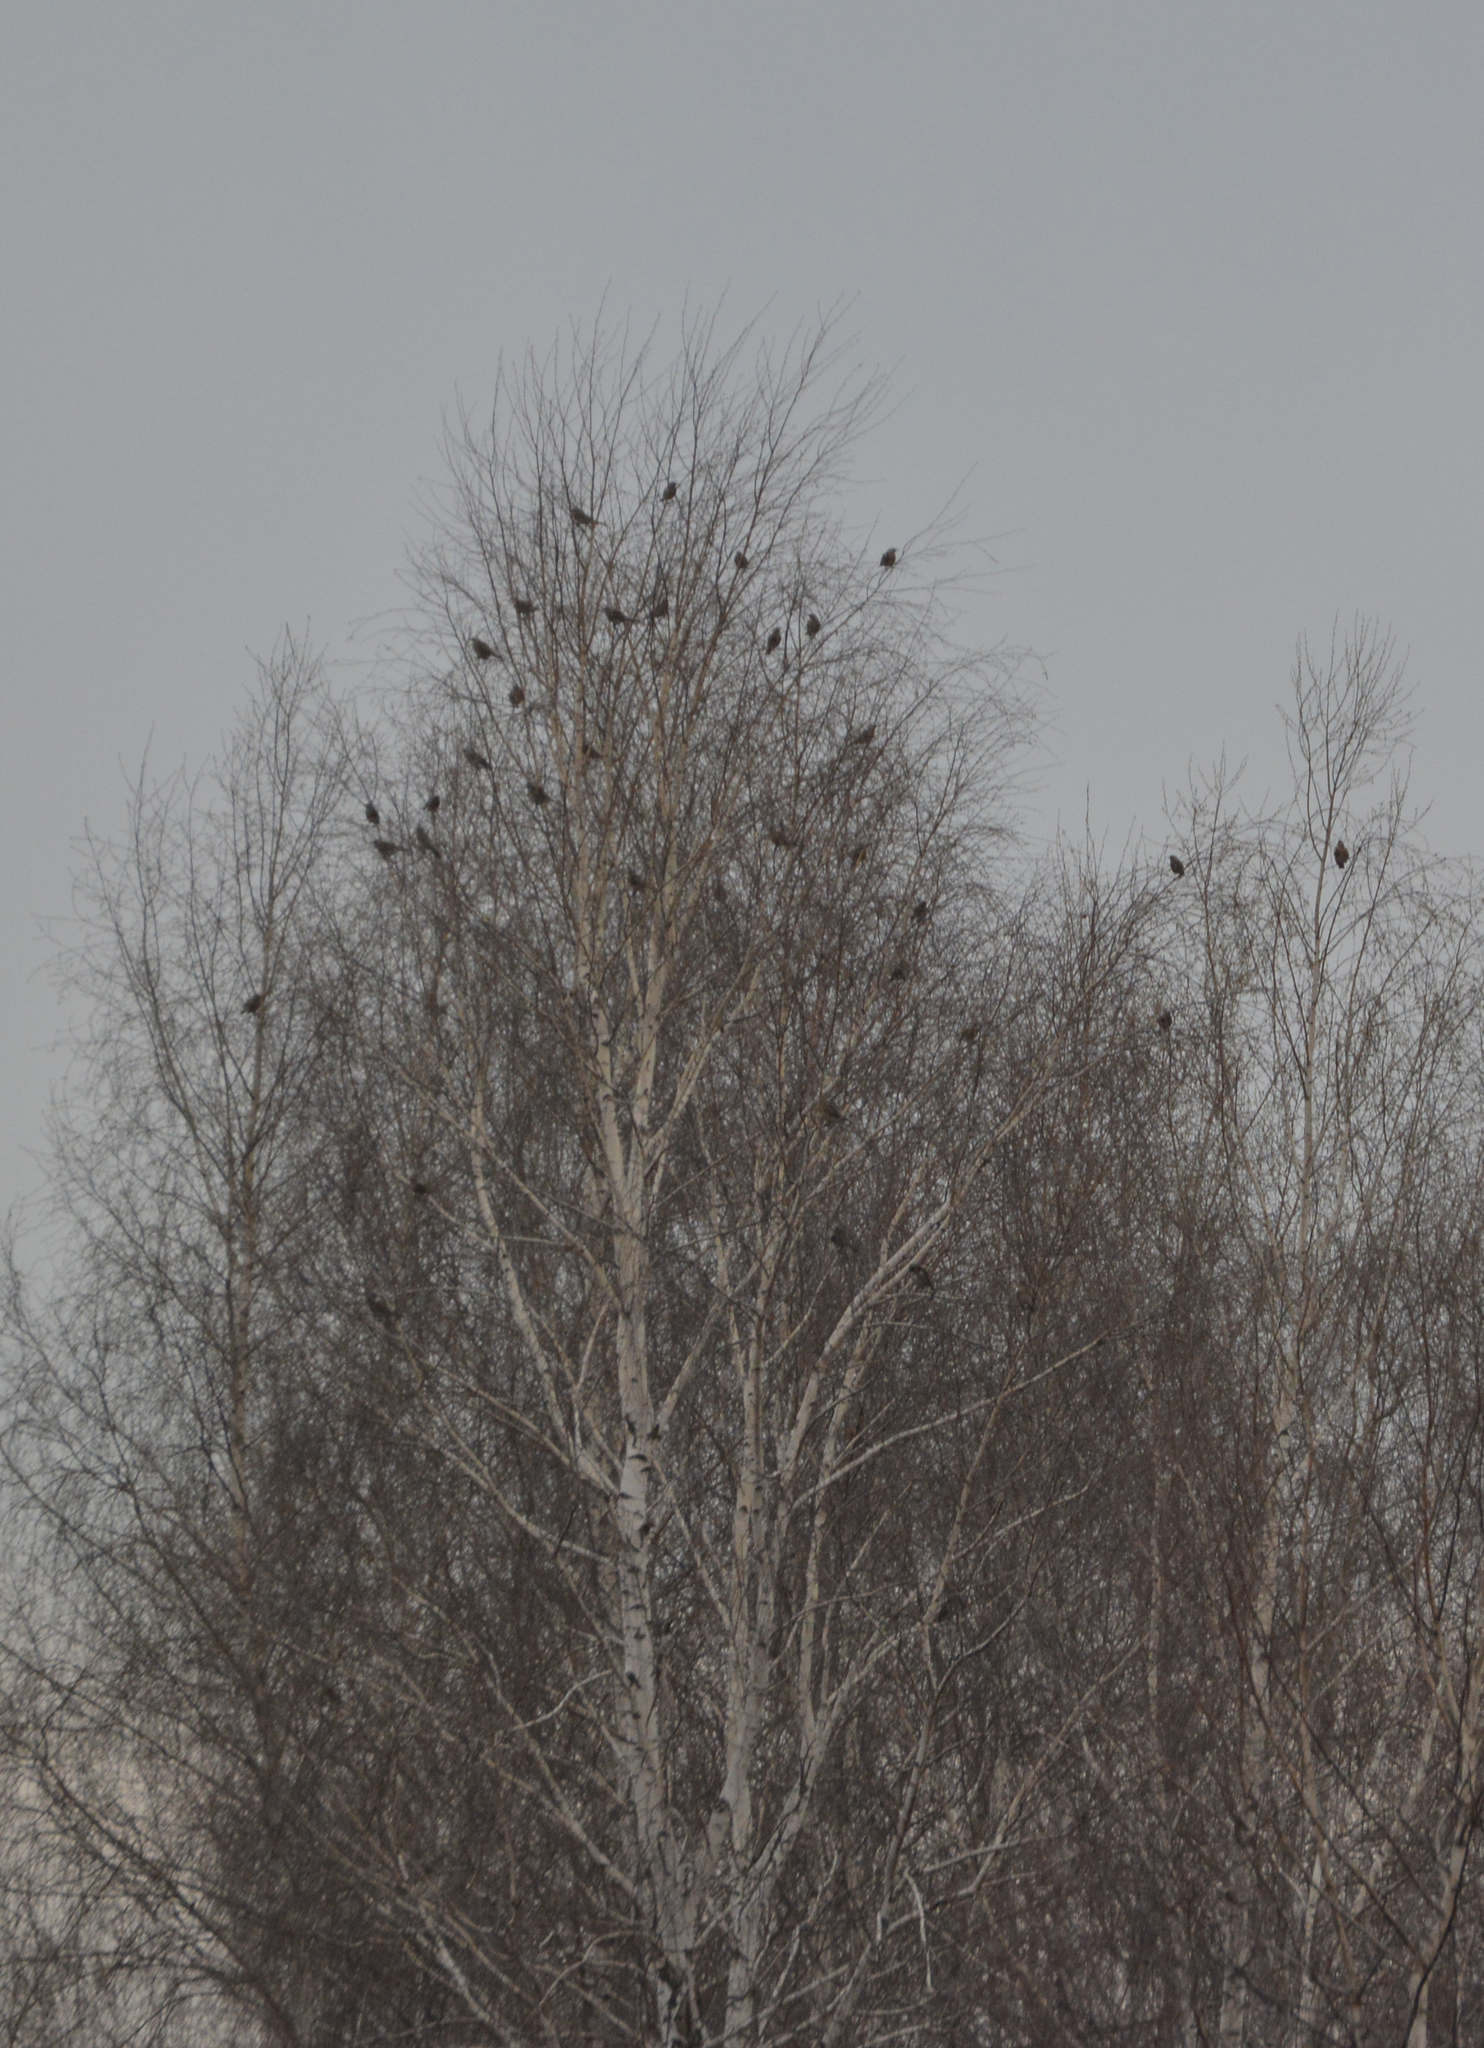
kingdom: Animalia
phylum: Chordata
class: Aves
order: Passeriformes
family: Turdidae
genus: Turdus
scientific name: Turdus pilaris
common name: Fieldfare
